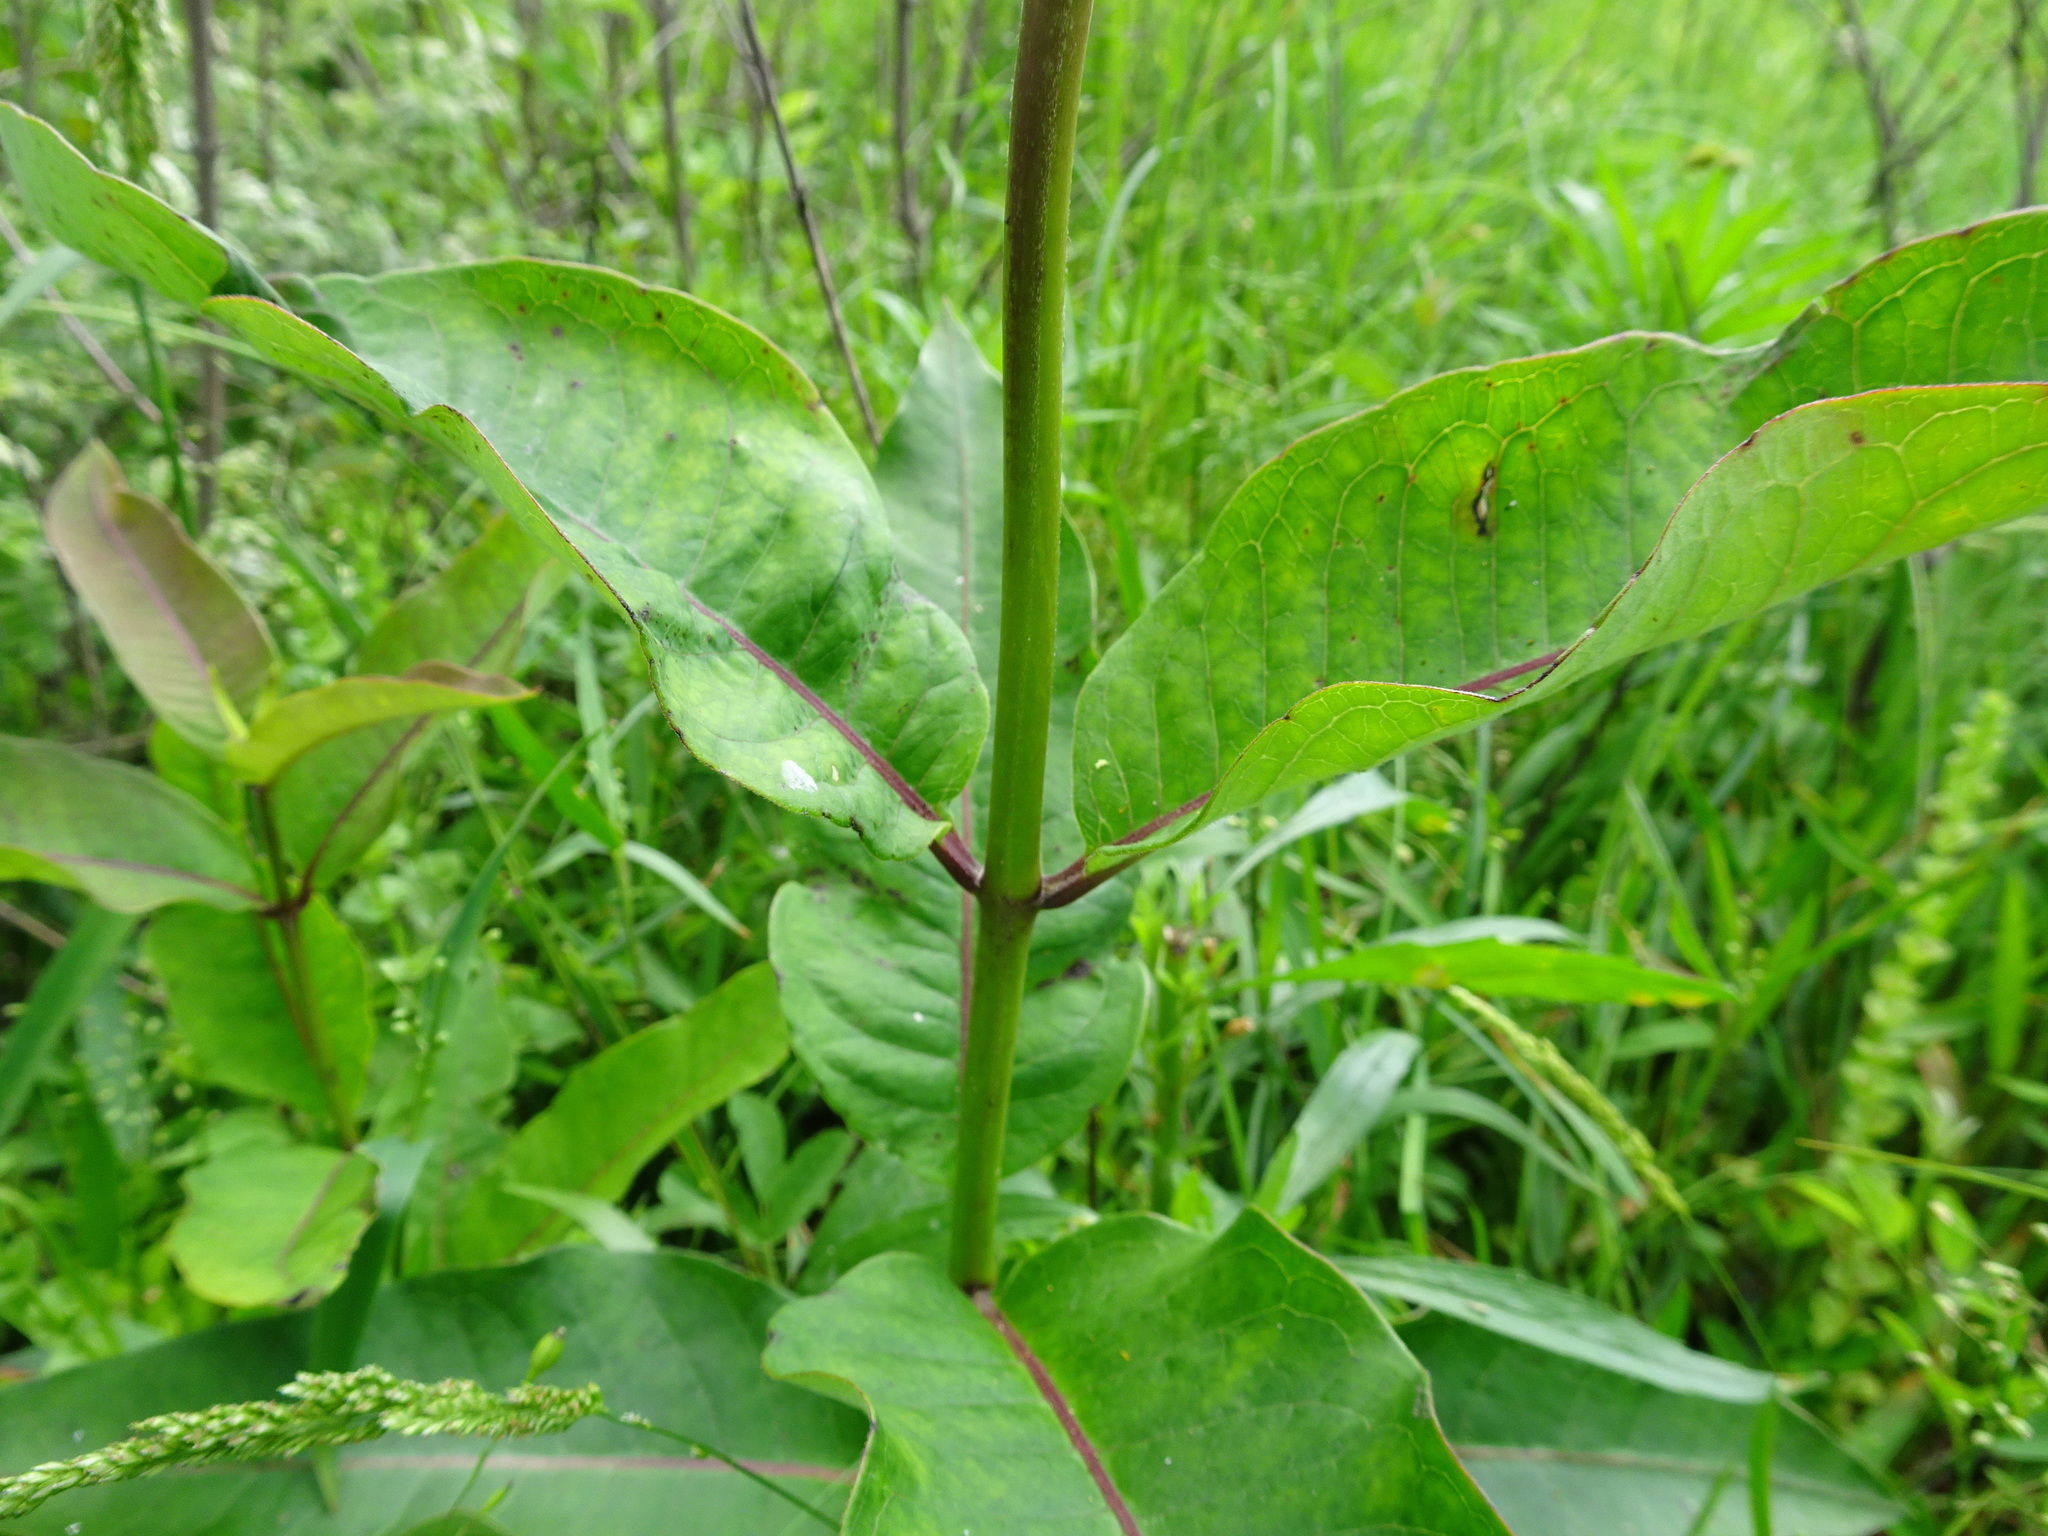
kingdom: Plantae
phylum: Tracheophyta
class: Magnoliopsida
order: Gentianales
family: Apocynaceae
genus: Asclepias
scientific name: Asclepias purpurascens
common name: Purple milkweed
